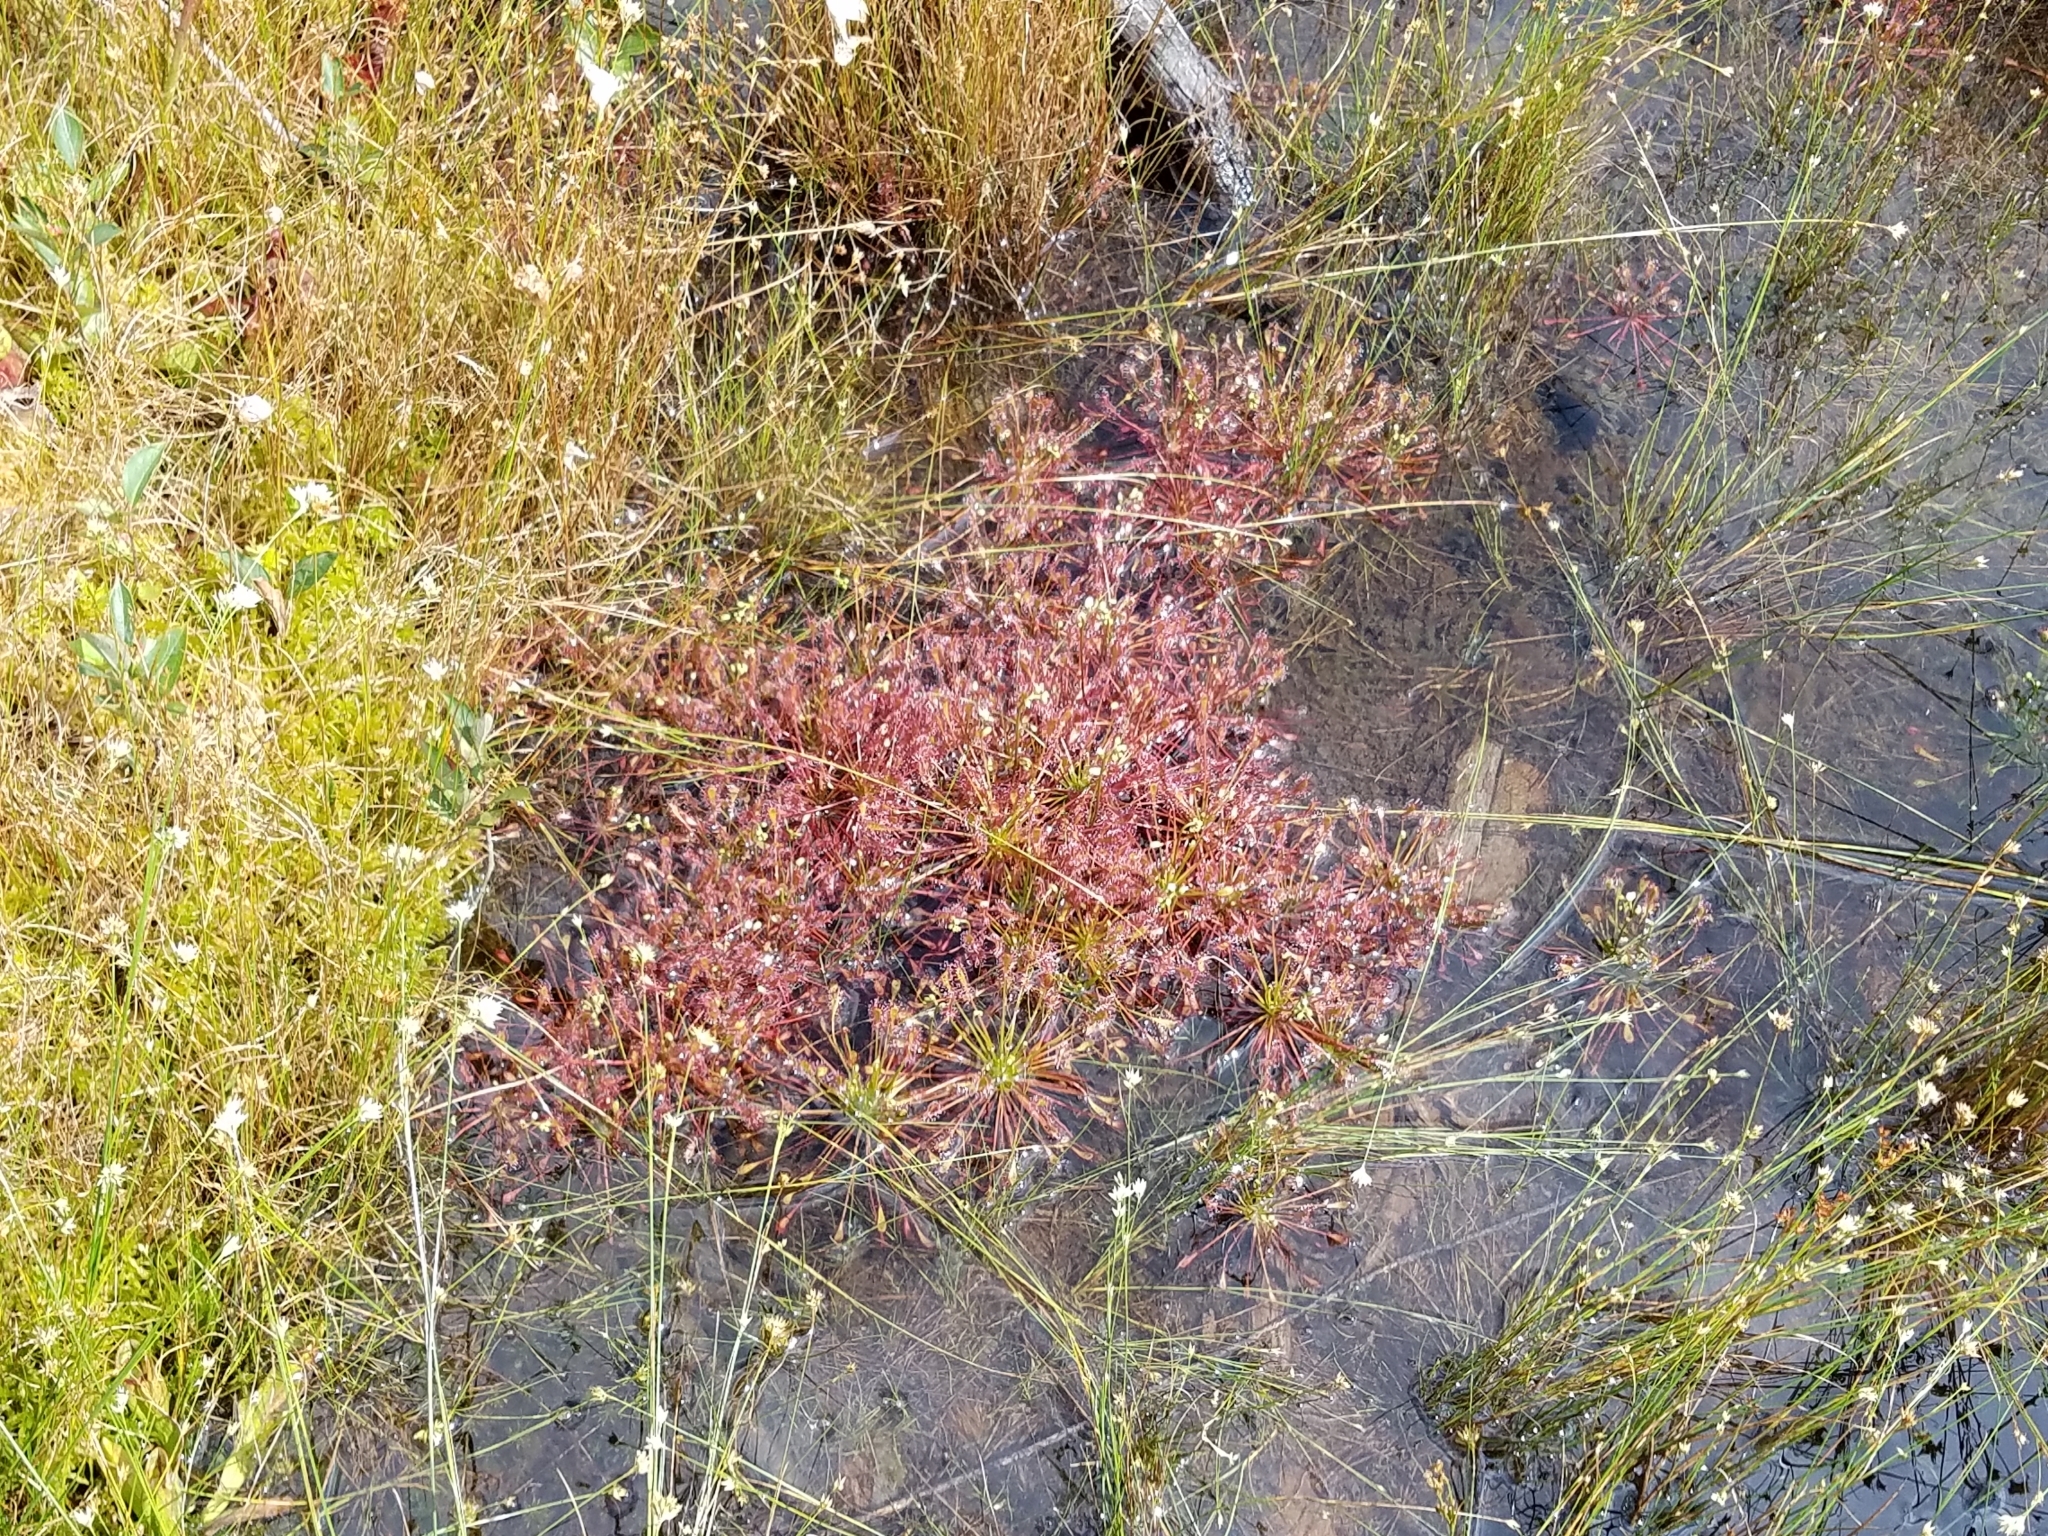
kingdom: Plantae
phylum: Tracheophyta
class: Magnoliopsida
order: Caryophyllales
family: Droseraceae
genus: Drosera
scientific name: Drosera intermedia
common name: Oblong-leaved sundew
